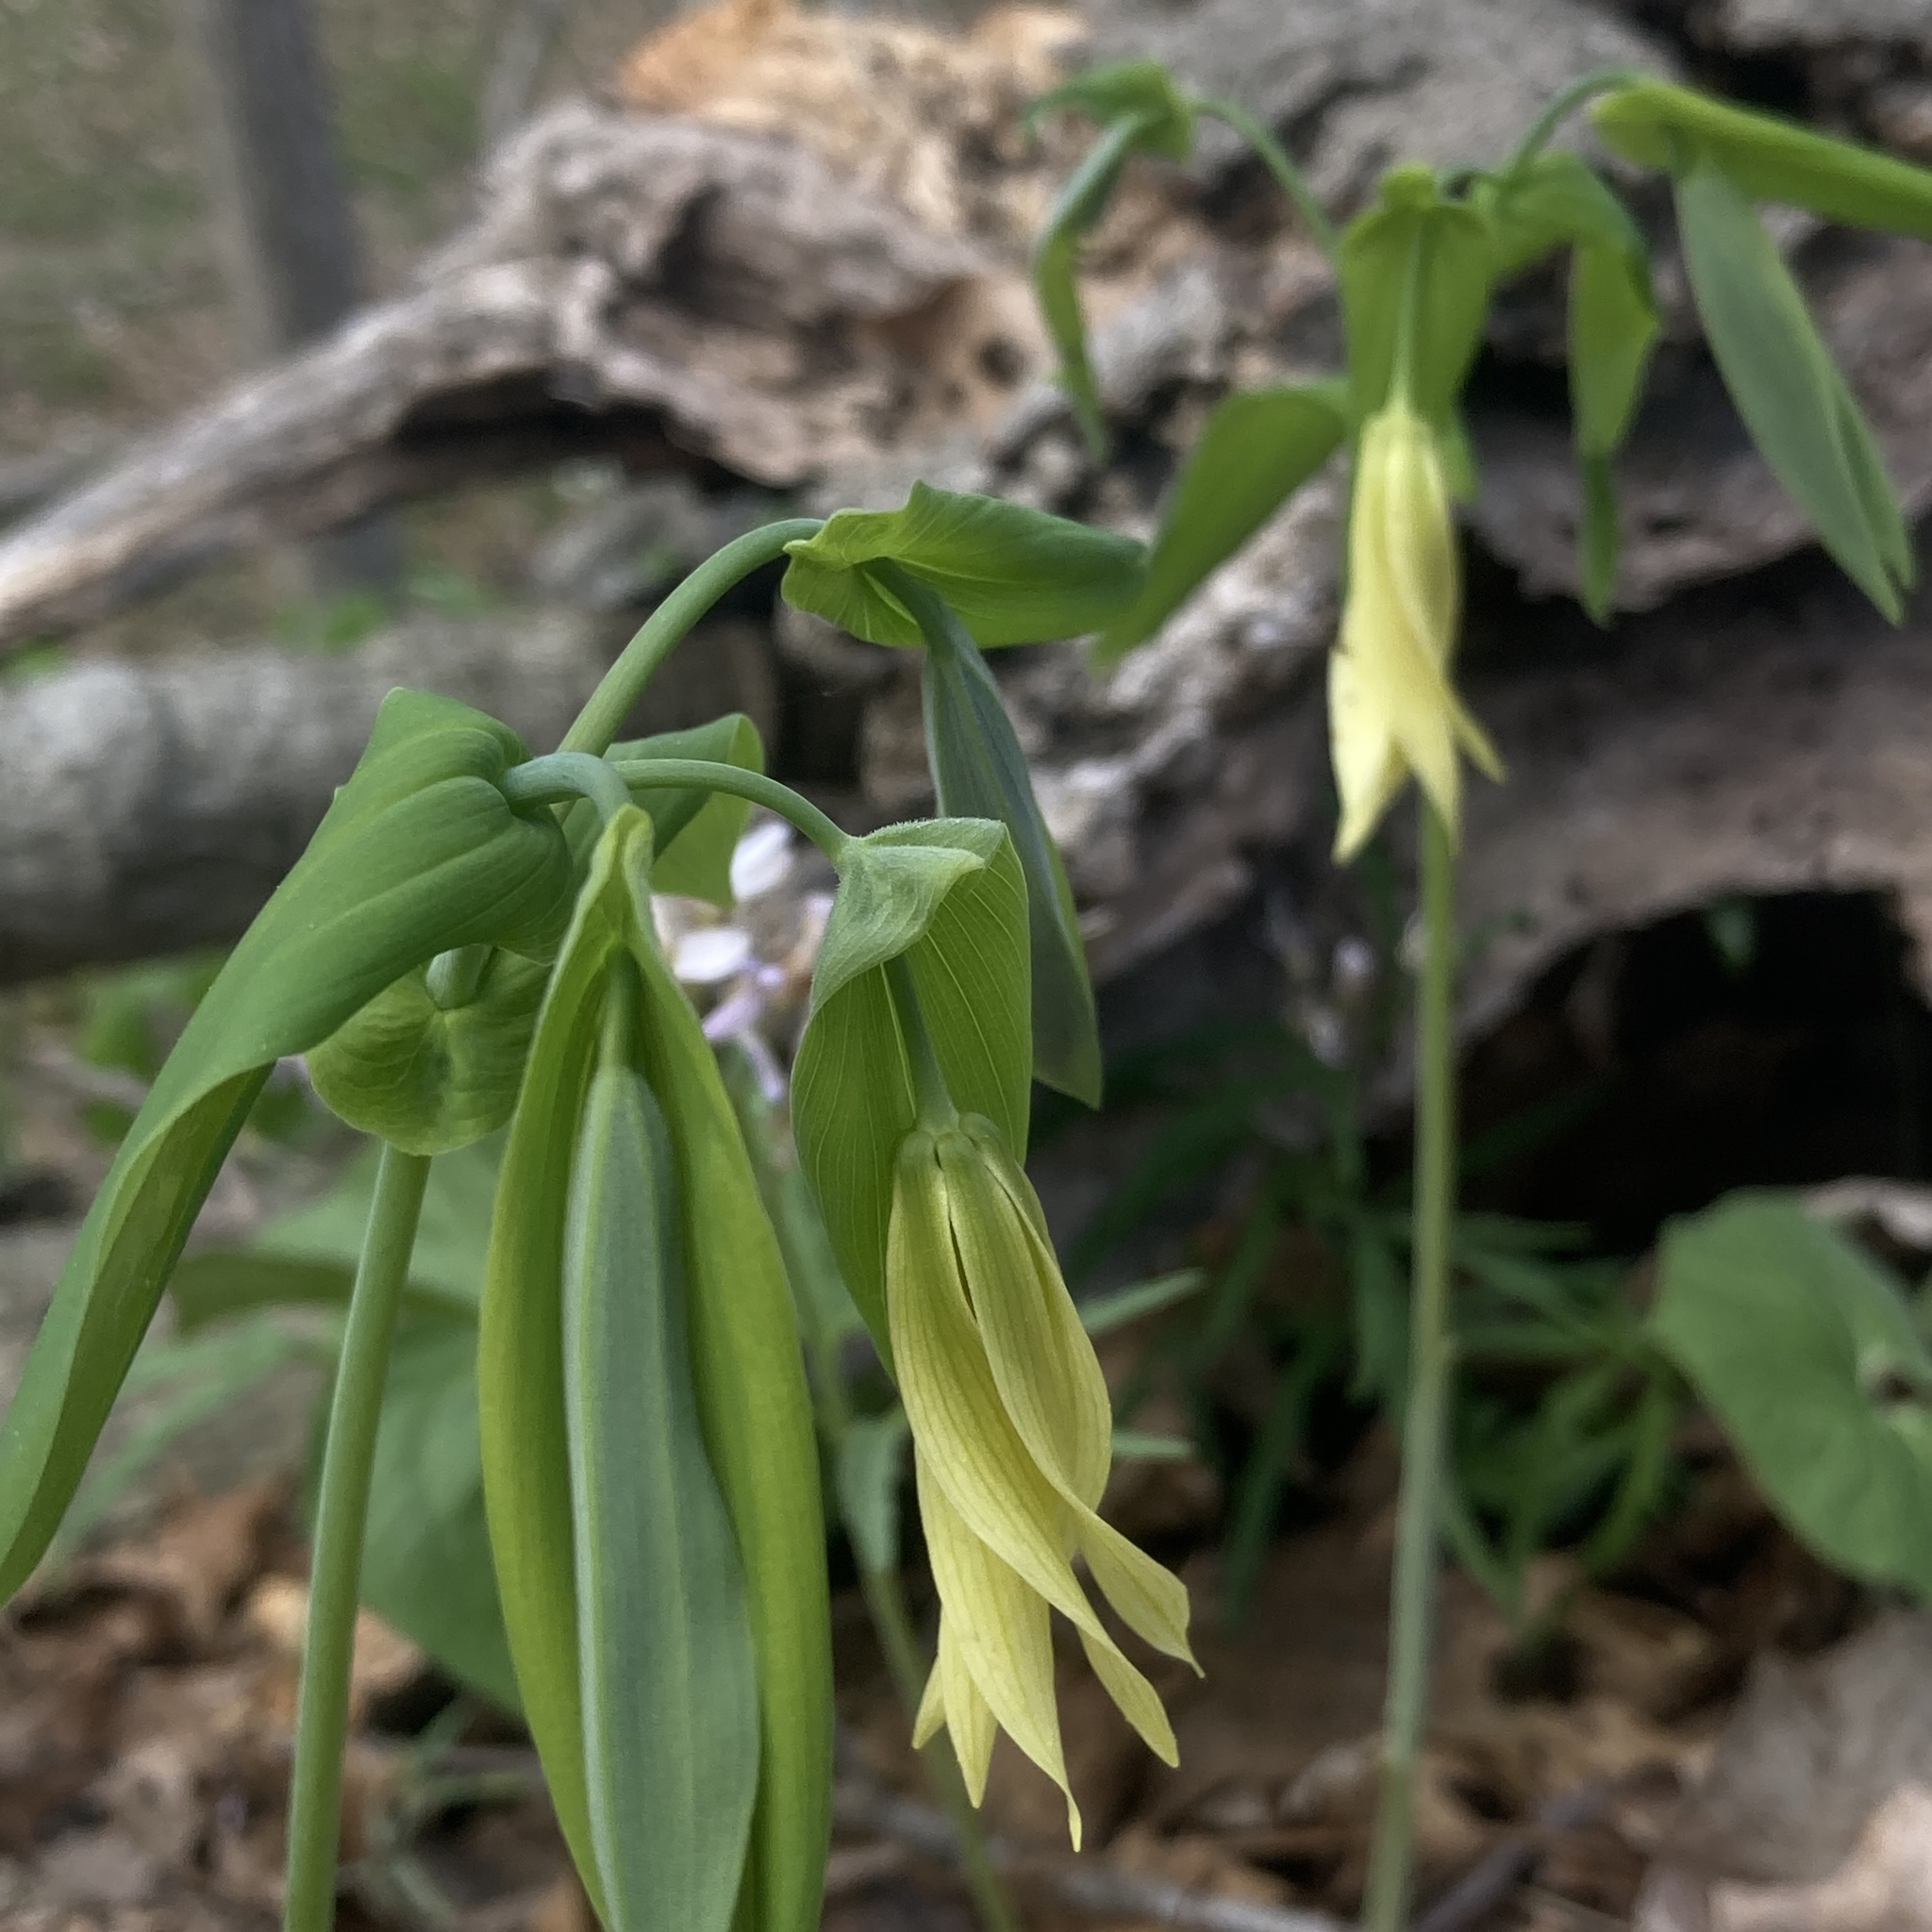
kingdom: Plantae
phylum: Tracheophyta
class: Liliopsida
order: Liliales
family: Colchicaceae
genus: Uvularia
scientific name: Uvularia grandiflora
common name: Bellwort
